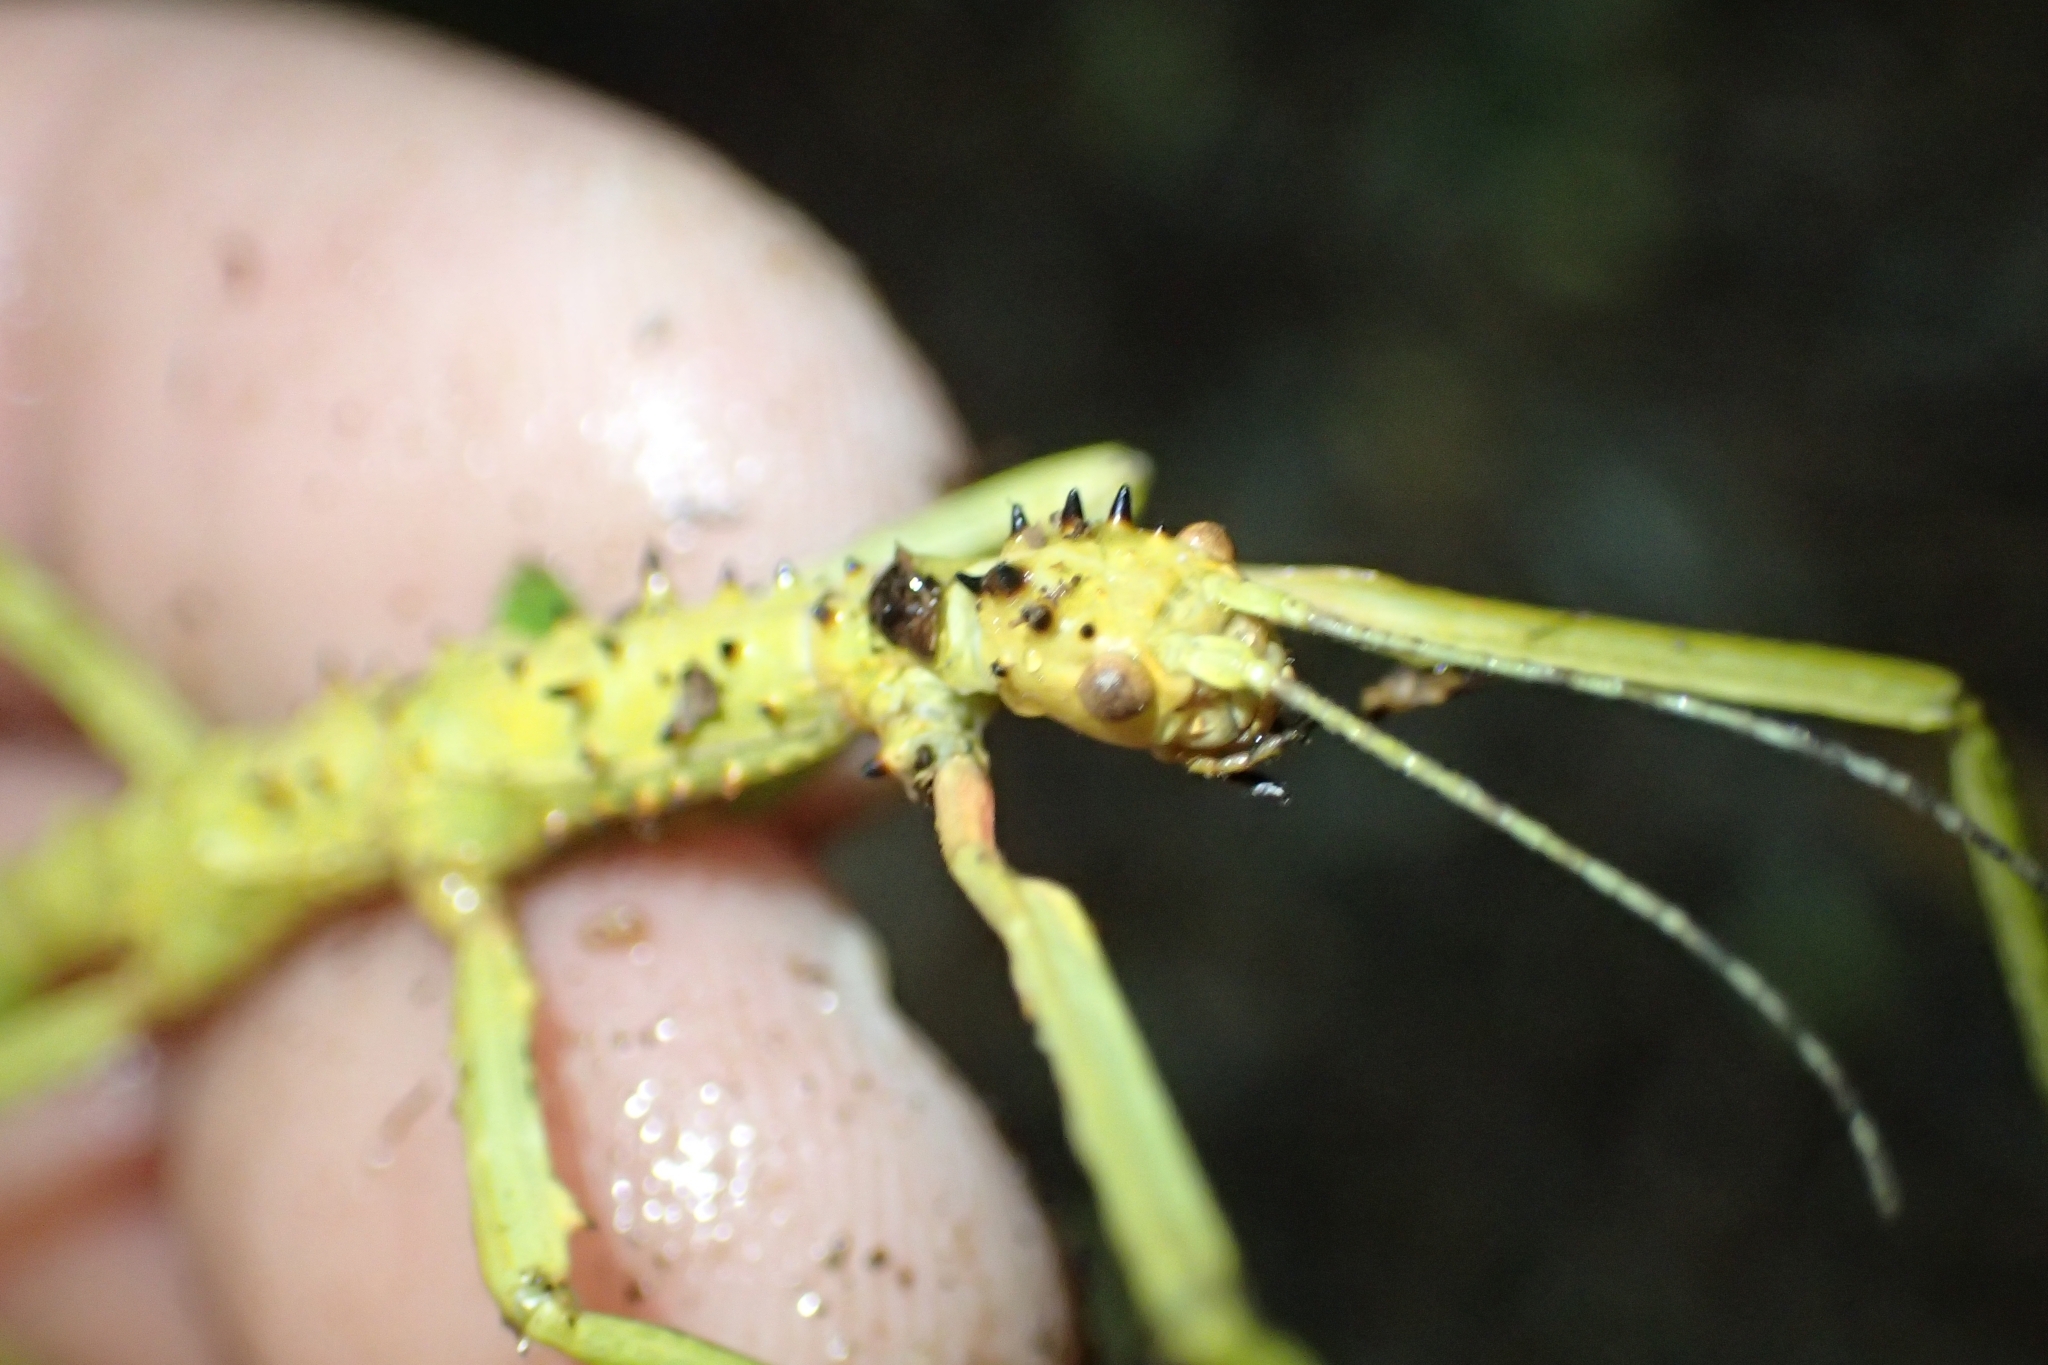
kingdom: Animalia
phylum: Arthropoda
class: Insecta
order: Phasmida
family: Phasmatidae
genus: Acanthoxyla
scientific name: Acanthoxyla prasina
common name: Black-spined stick insect
